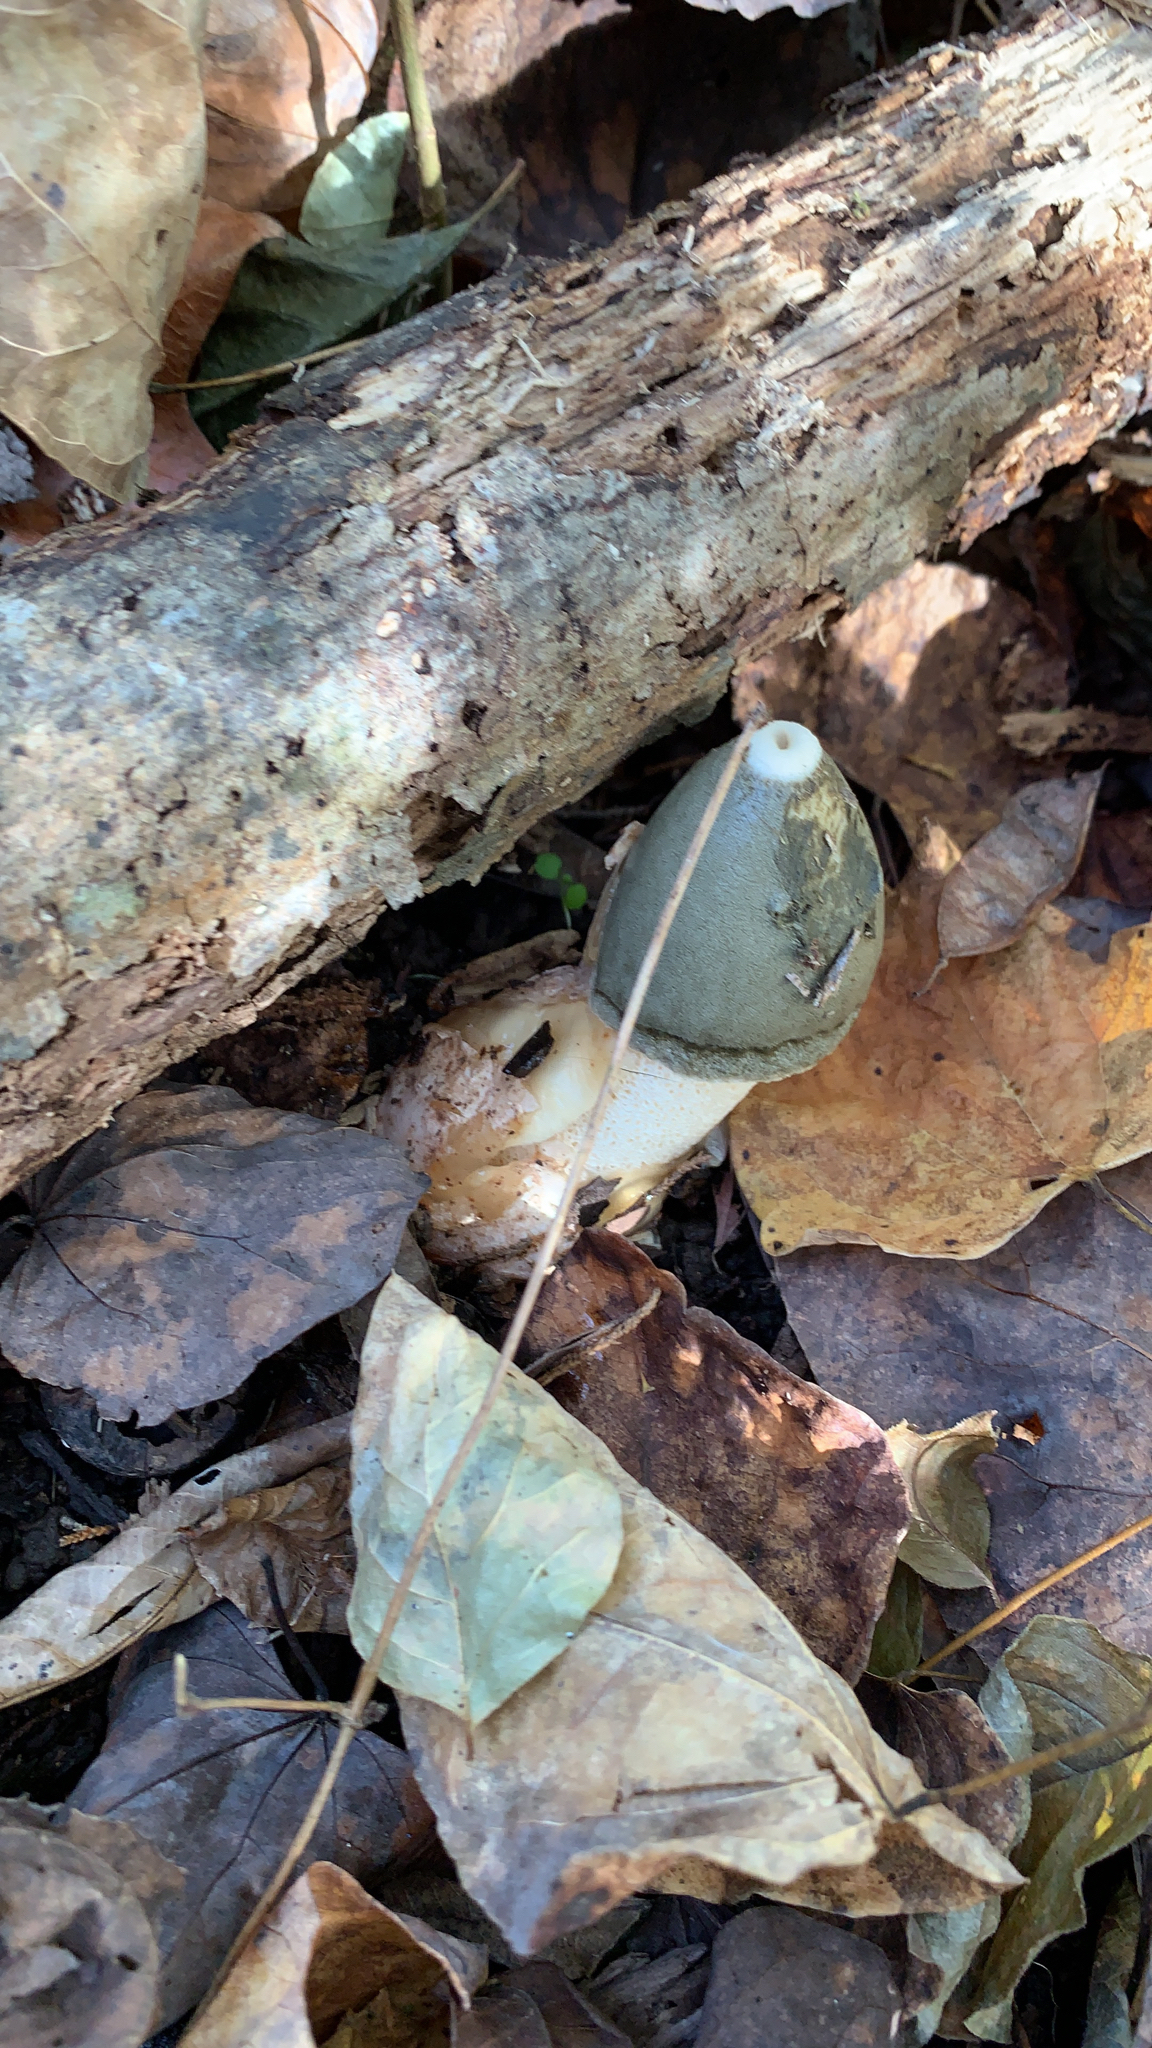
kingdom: Fungi
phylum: Basidiomycota
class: Agaricomycetes
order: Phallales
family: Phallaceae
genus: Phallus
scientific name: Phallus ravenelii
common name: Ravenel's stinkhorn
